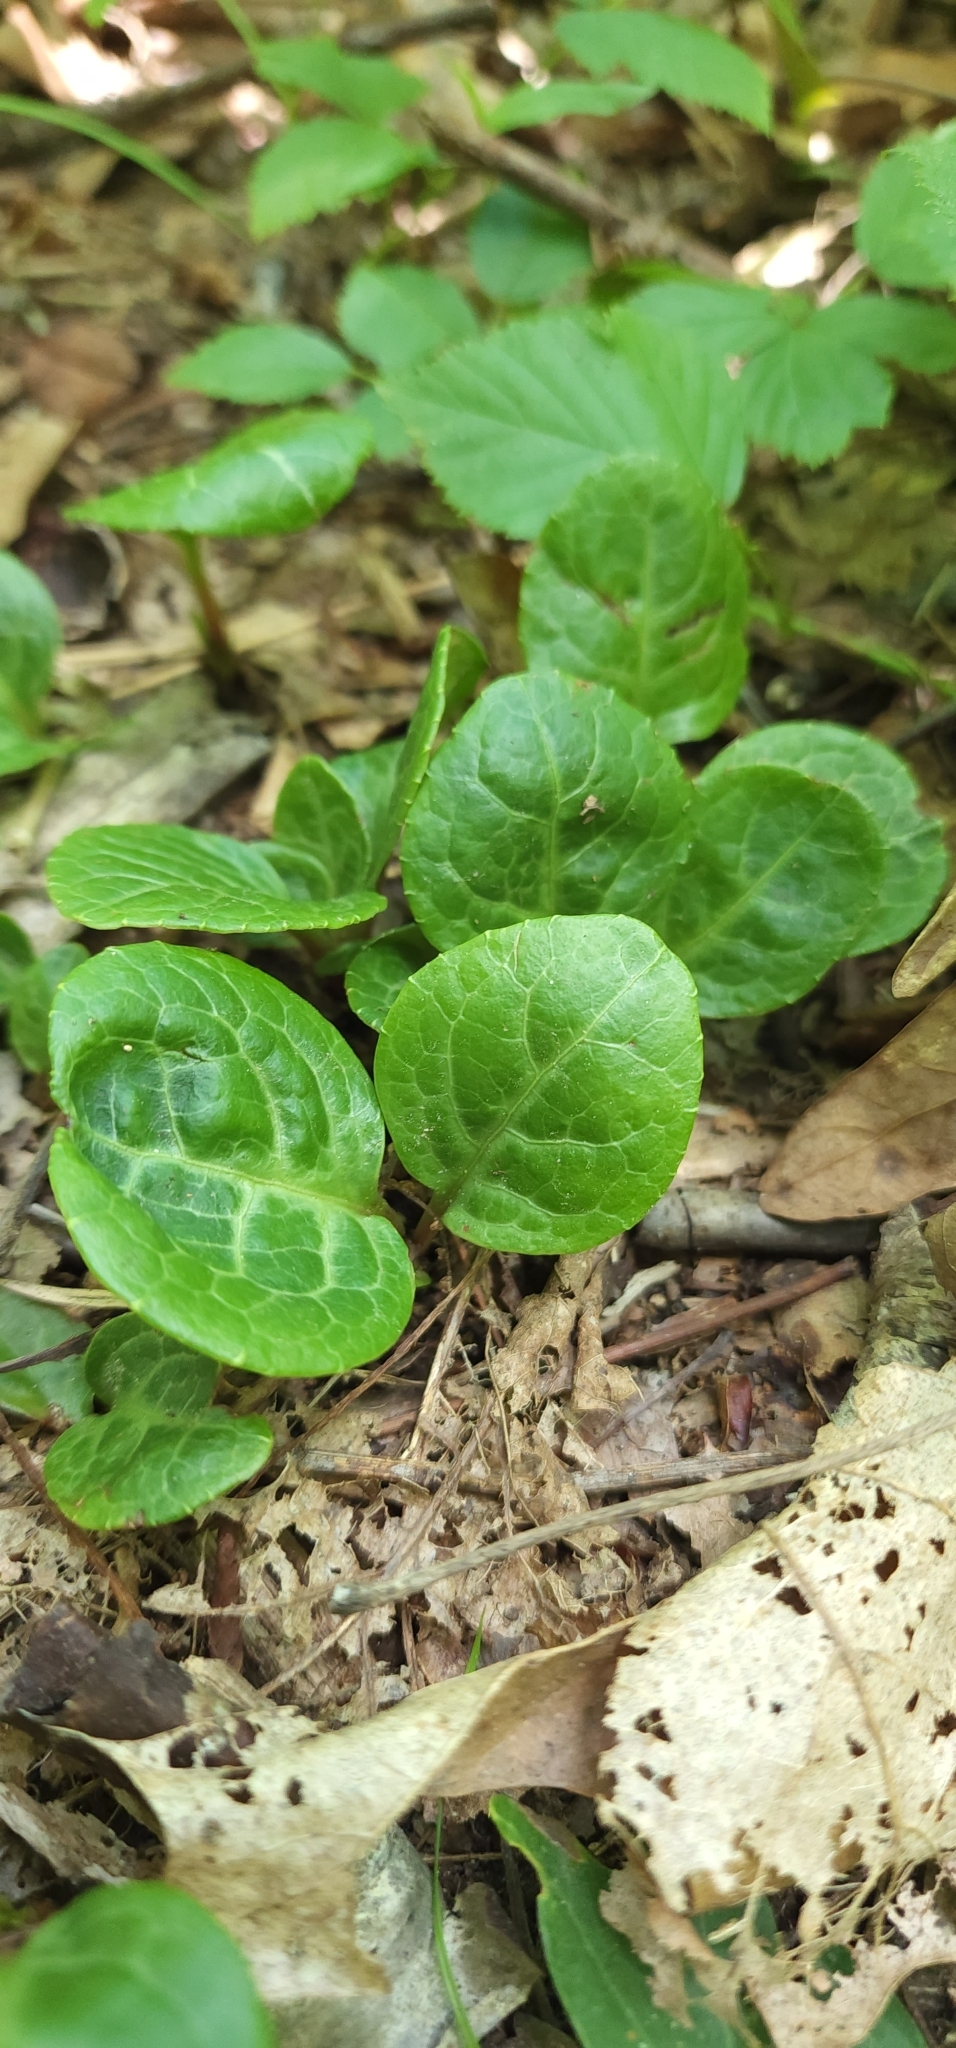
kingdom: Plantae
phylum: Tracheophyta
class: Magnoliopsida
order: Ericales
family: Ericaceae
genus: Pyrola
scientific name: Pyrola americana
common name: American wintergreen
